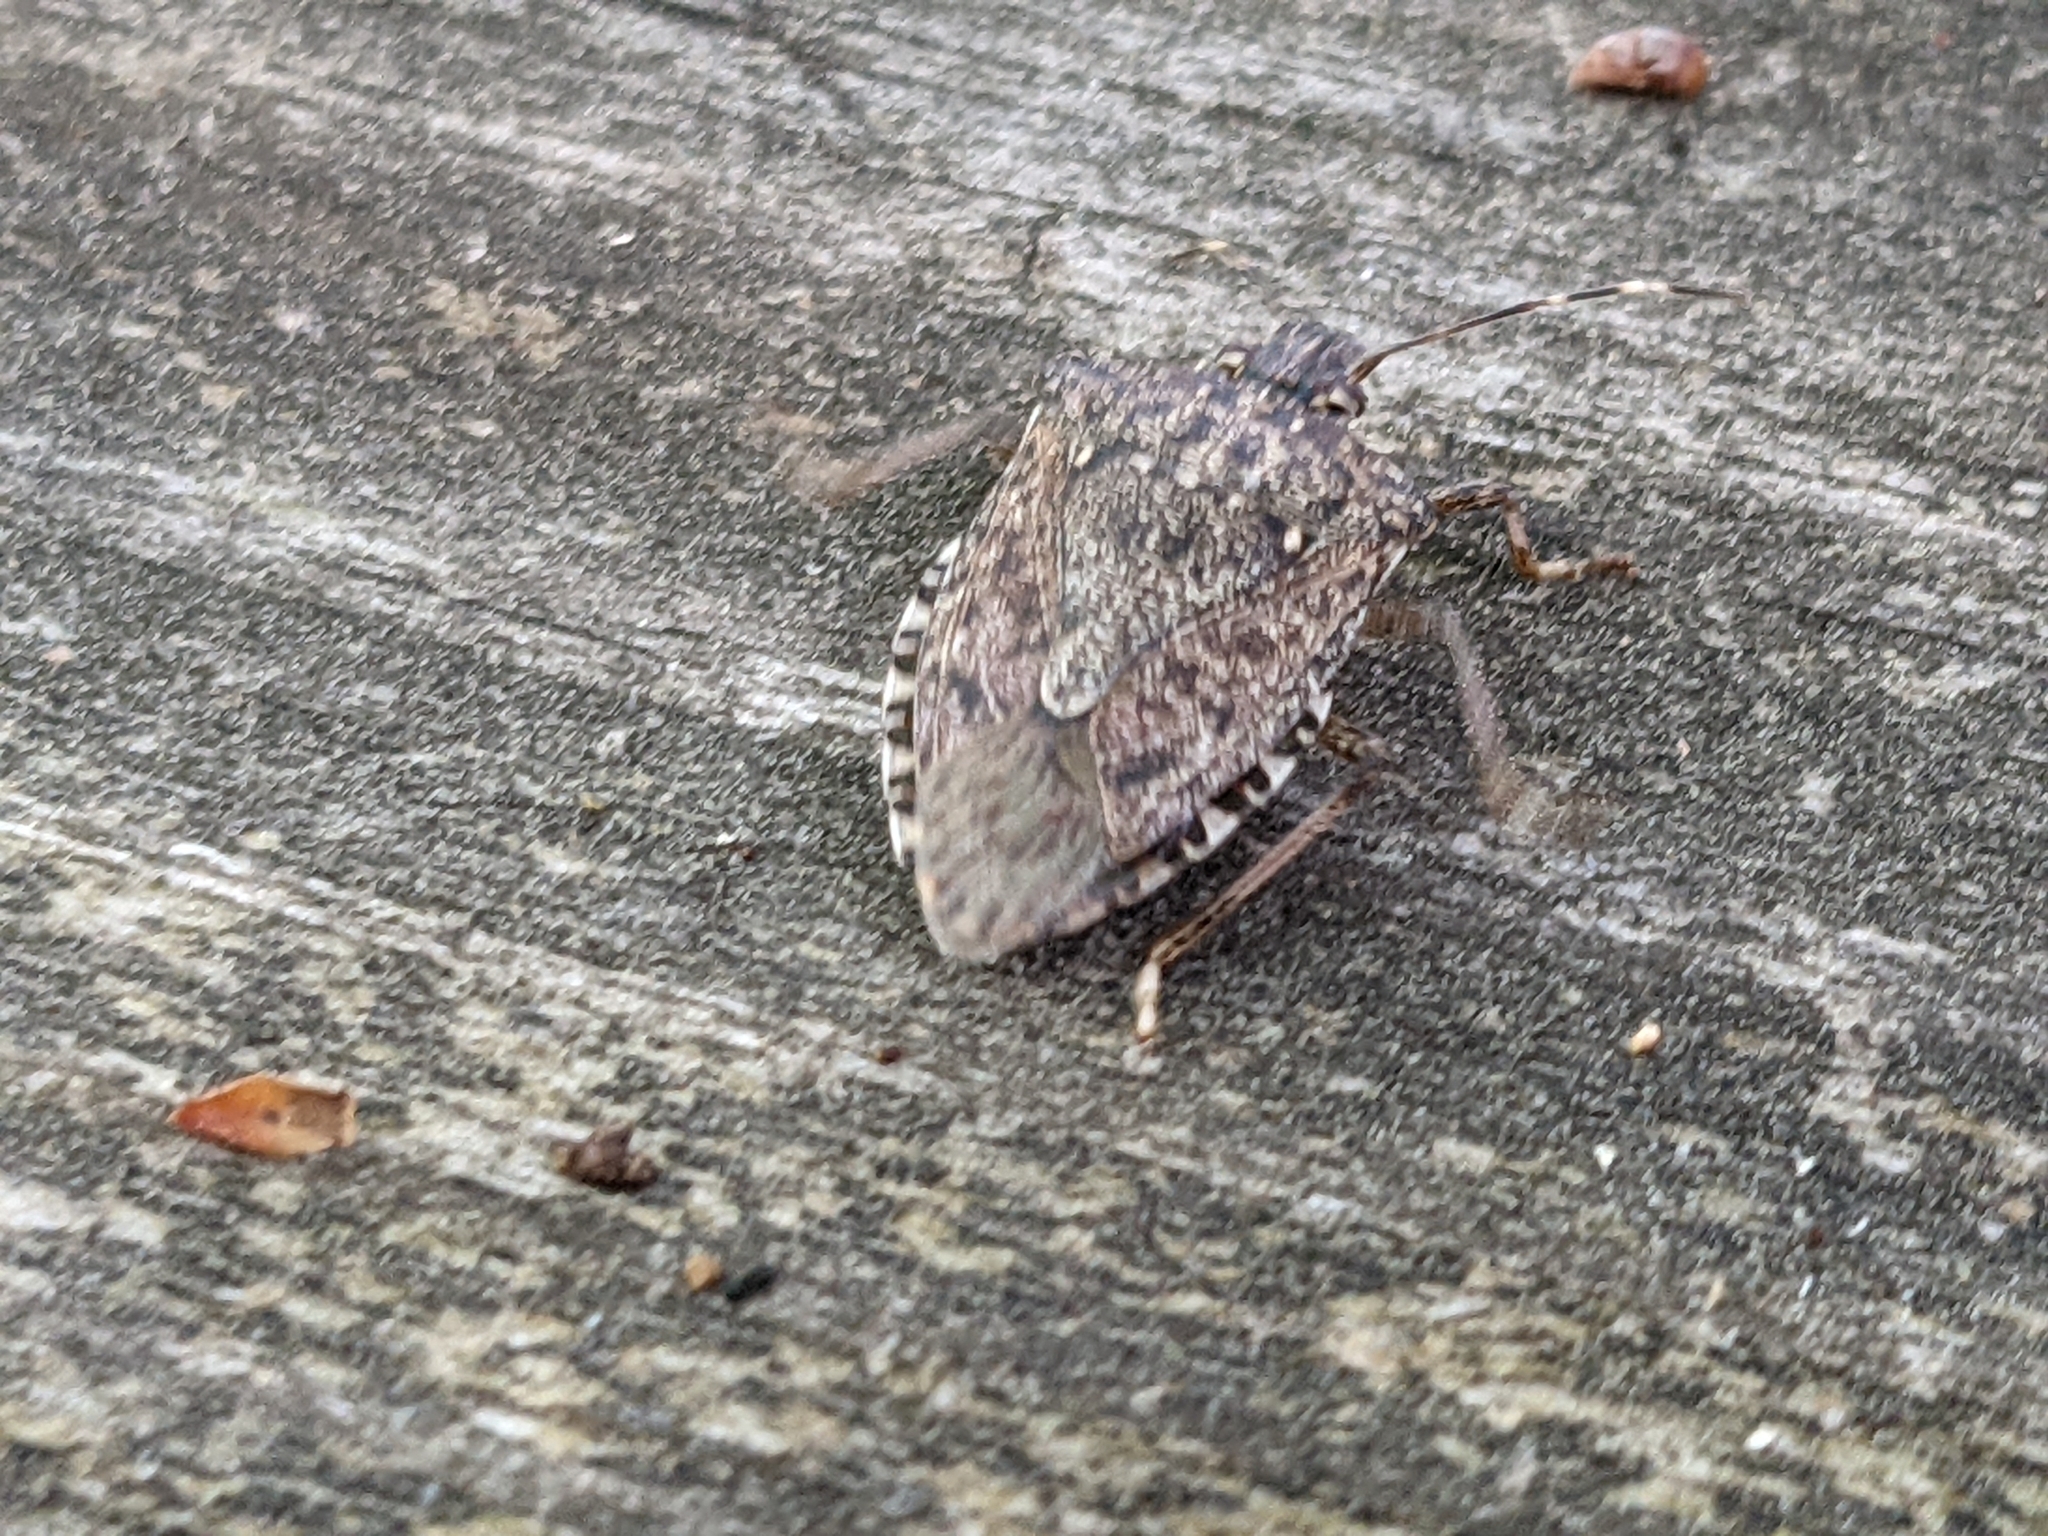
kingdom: Animalia
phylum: Arthropoda
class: Insecta
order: Hemiptera
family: Pentatomidae
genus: Halyomorpha
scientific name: Halyomorpha halys
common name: Brown marmorated stink bug
